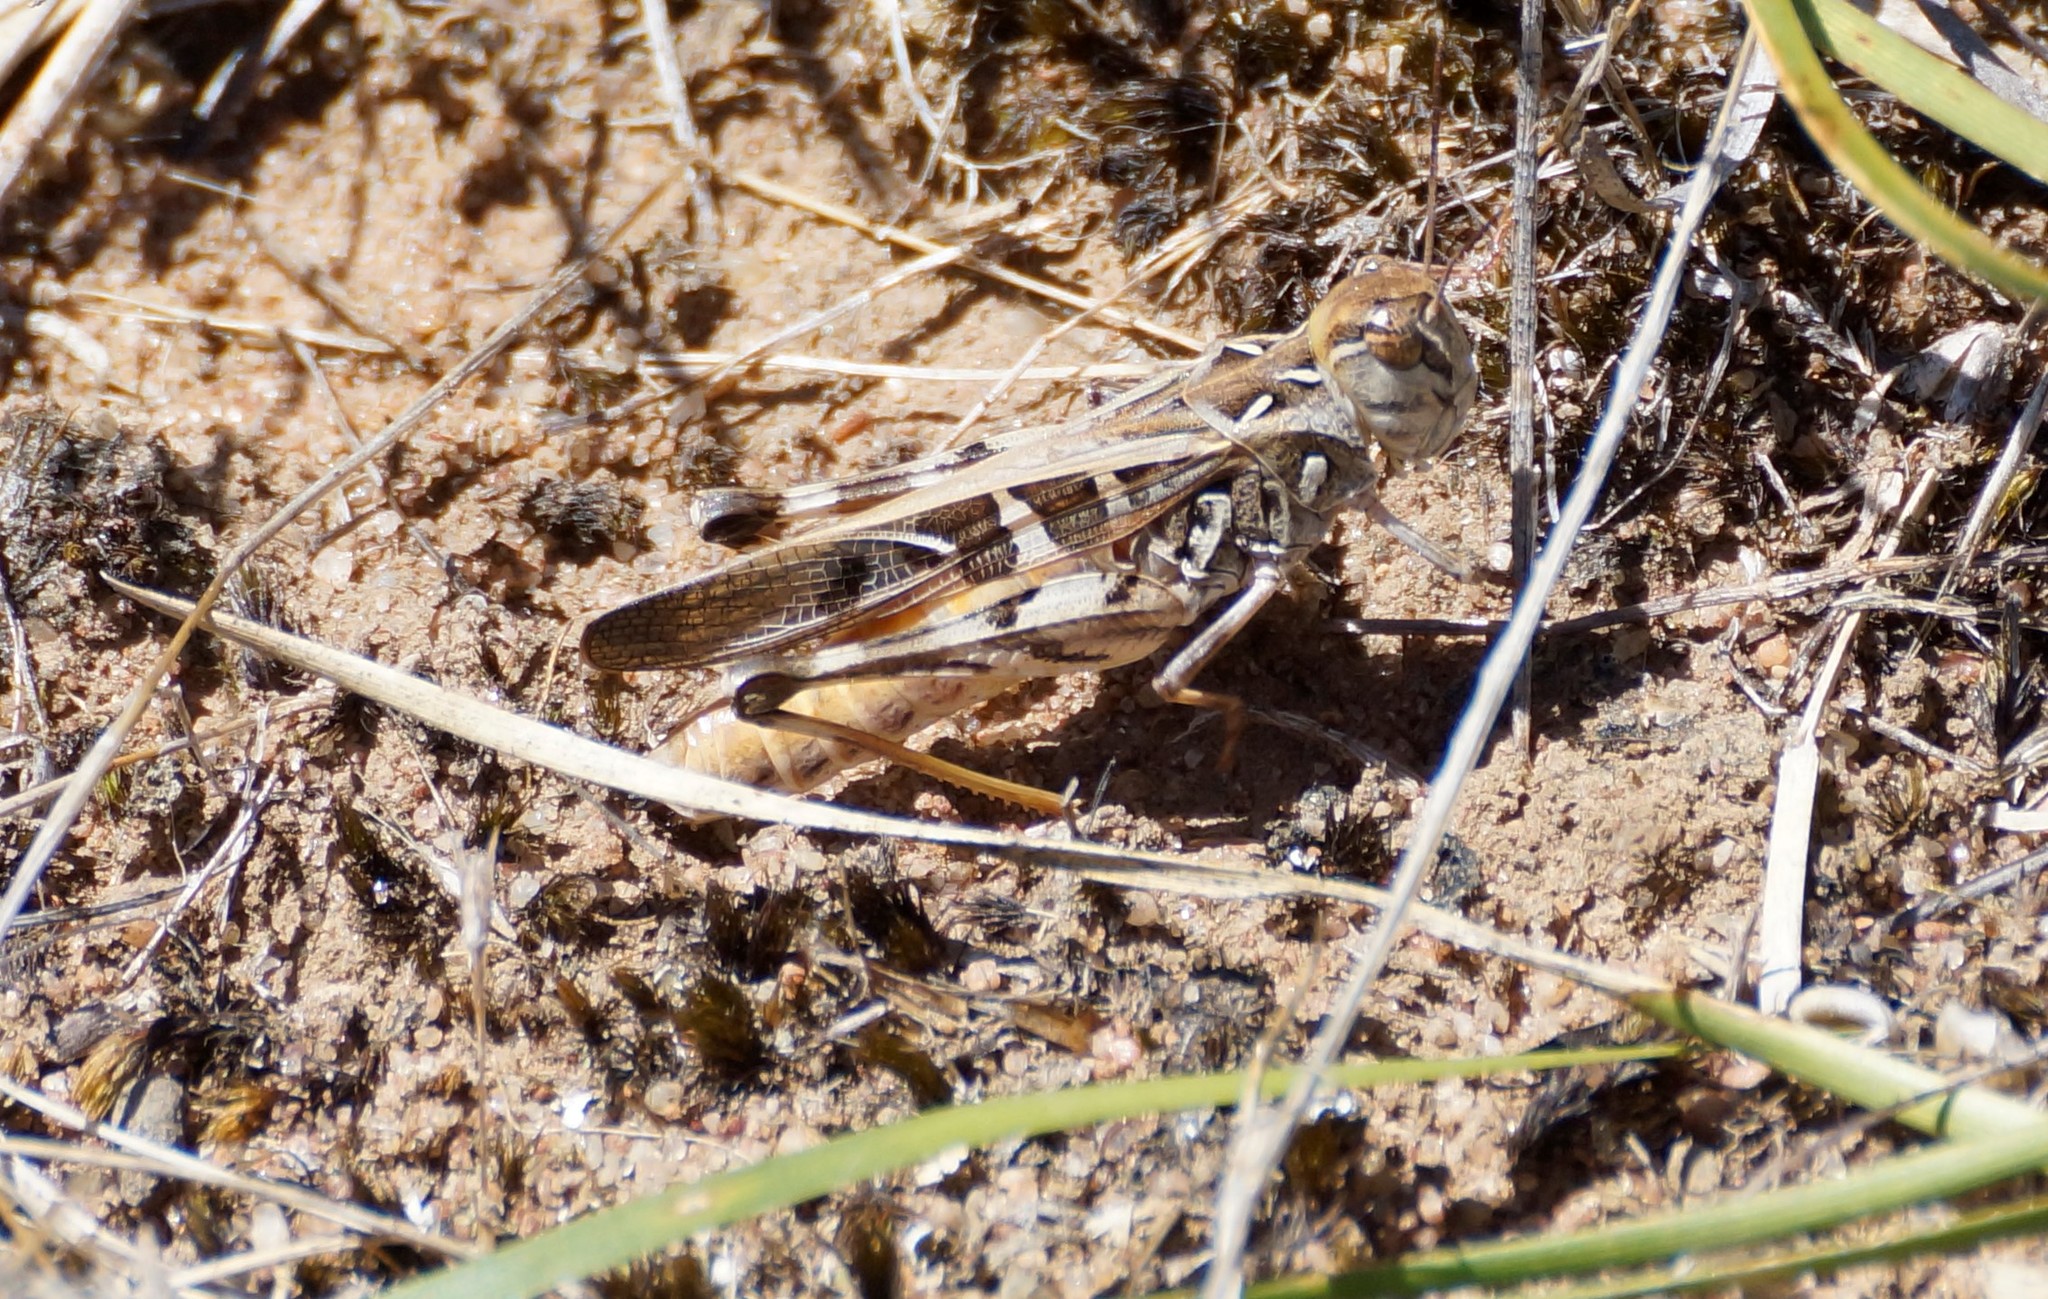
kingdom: Animalia
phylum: Arthropoda
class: Insecta
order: Orthoptera
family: Acrididae
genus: Oedaleus
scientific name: Oedaleus australis
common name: Eastern oedaleus
